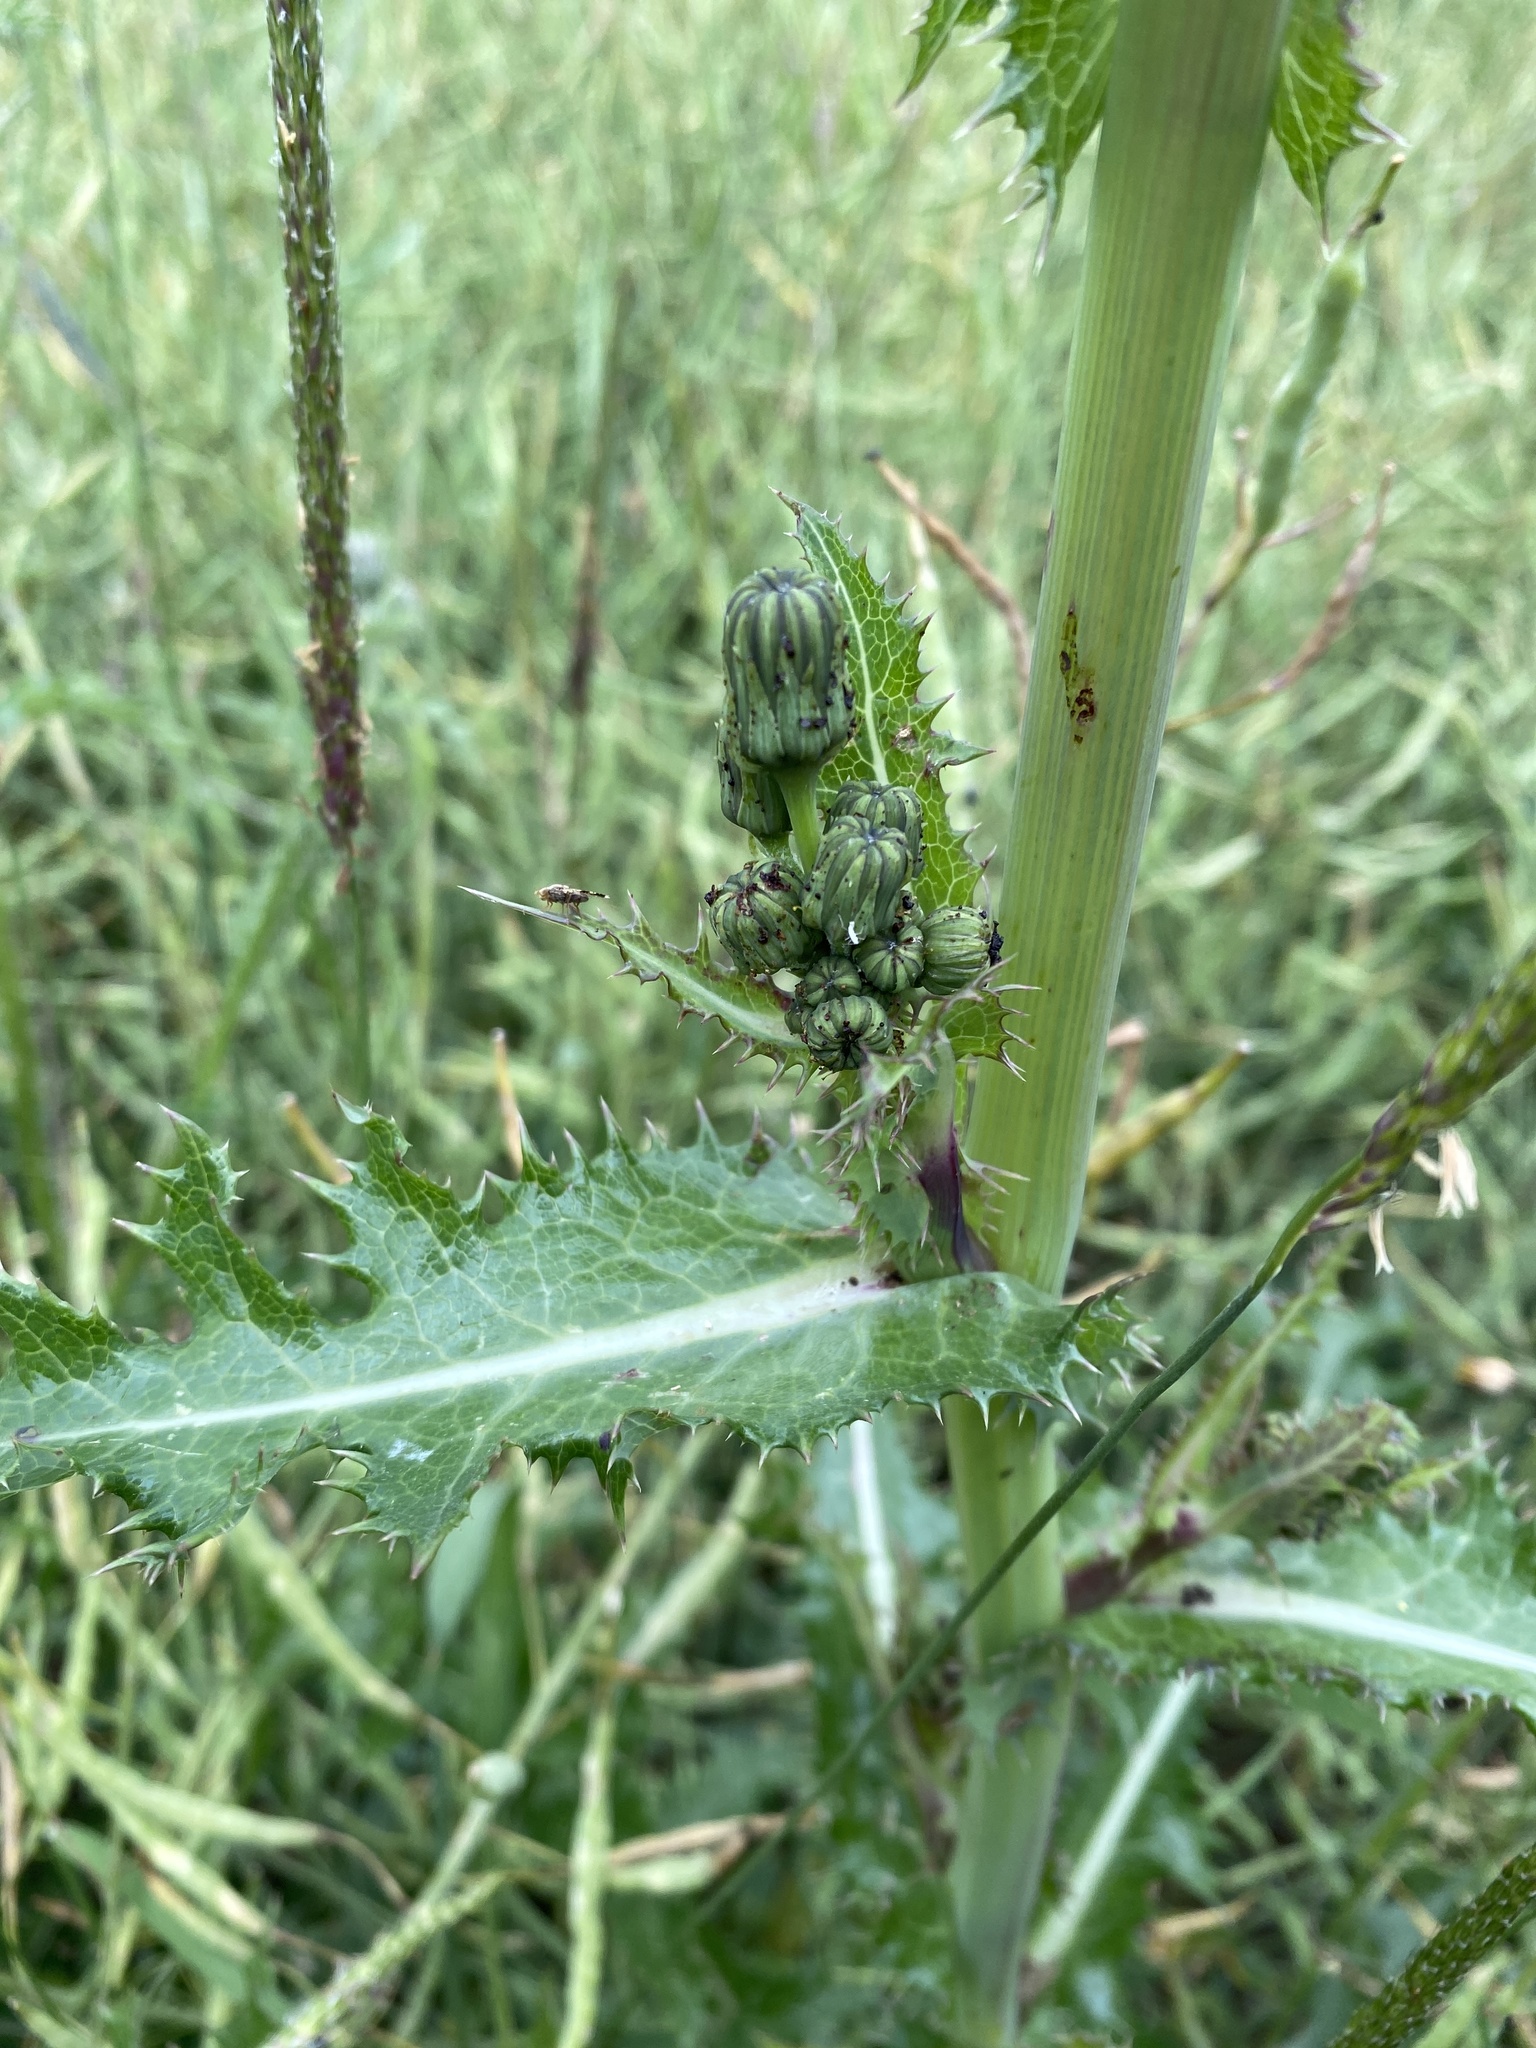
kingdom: Plantae
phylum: Tracheophyta
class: Magnoliopsida
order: Asterales
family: Asteraceae
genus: Sonchus
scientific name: Sonchus asper
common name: Prickly sow-thistle
